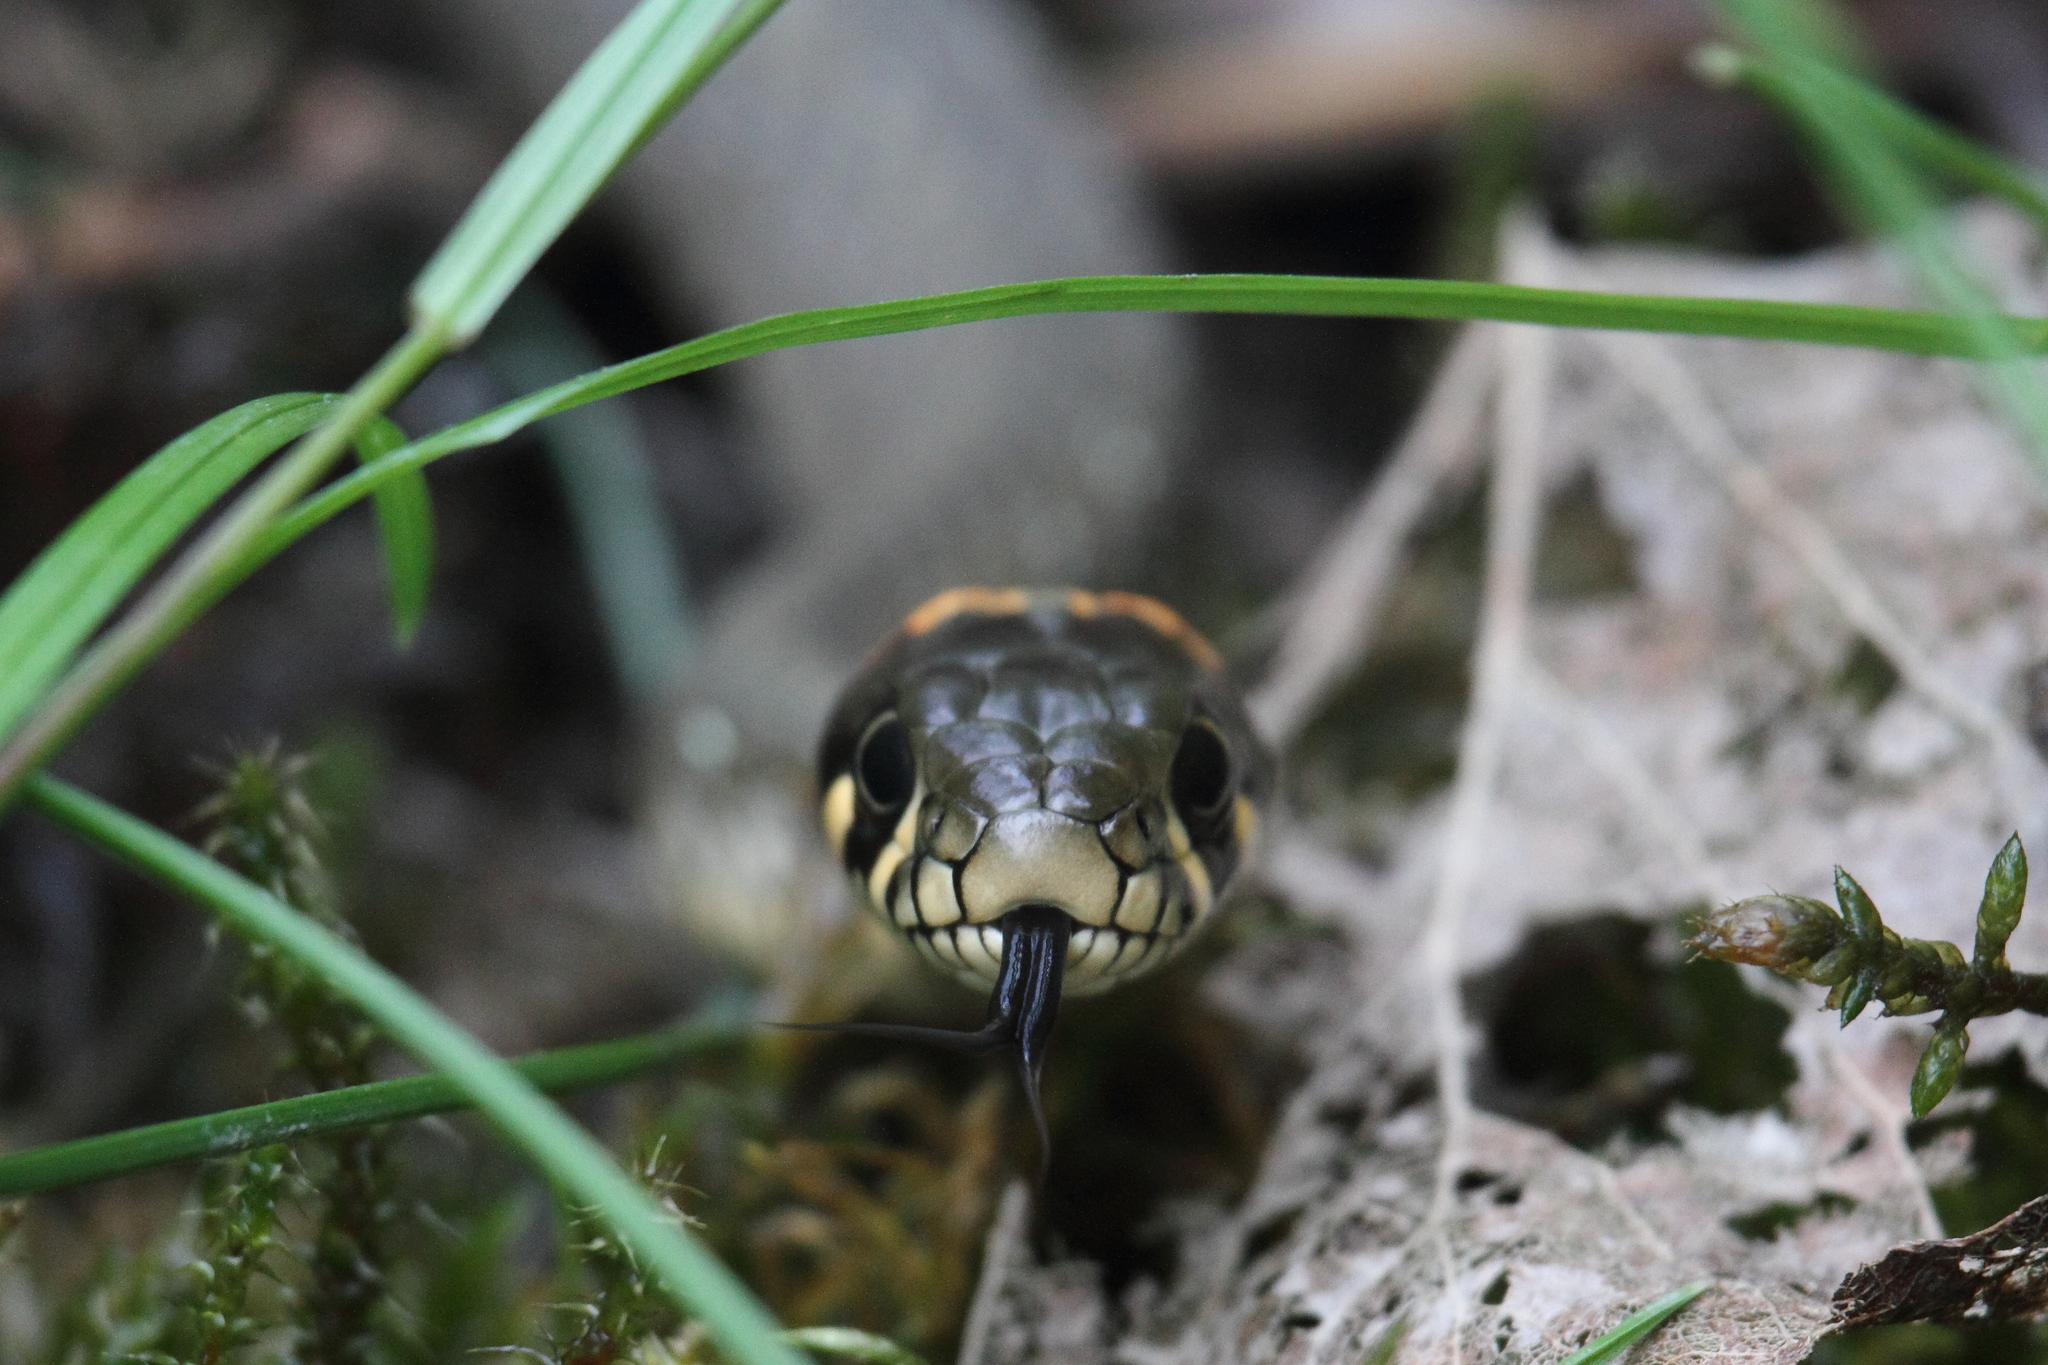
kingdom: Animalia
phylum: Chordata
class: Squamata
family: Colubridae
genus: Natrix
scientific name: Natrix natrix
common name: Grass snake
